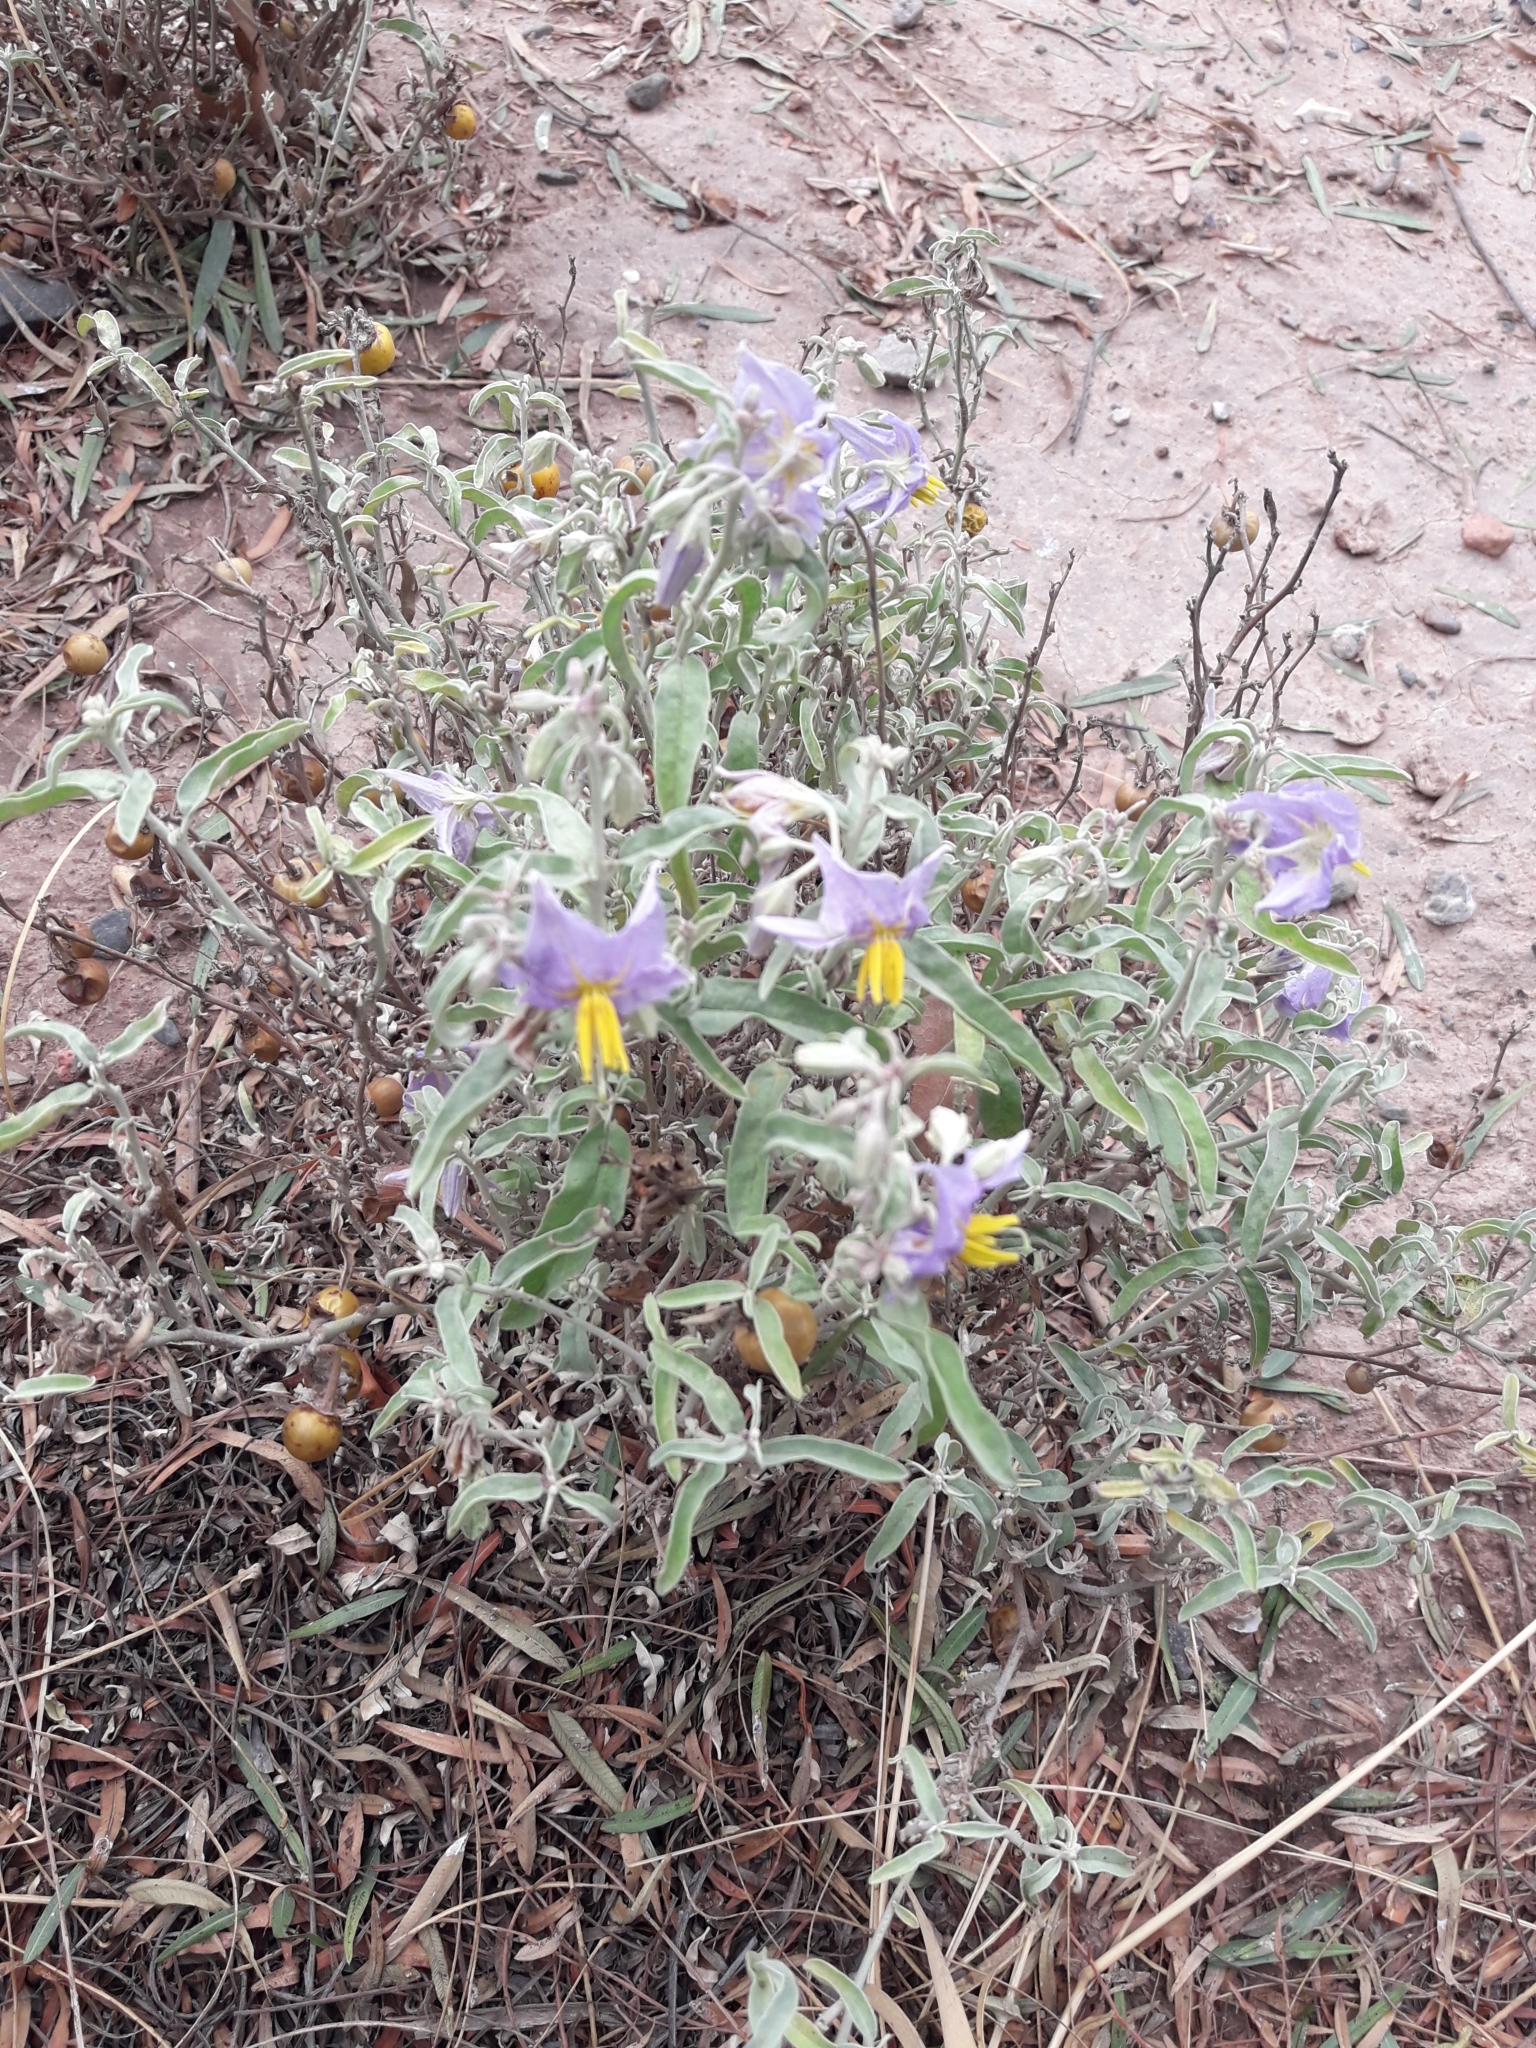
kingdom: Plantae
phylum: Tracheophyta
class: Magnoliopsida
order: Solanales
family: Solanaceae
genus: Solanum
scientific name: Solanum elaeagnifolium
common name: Silverleaf nightshade
